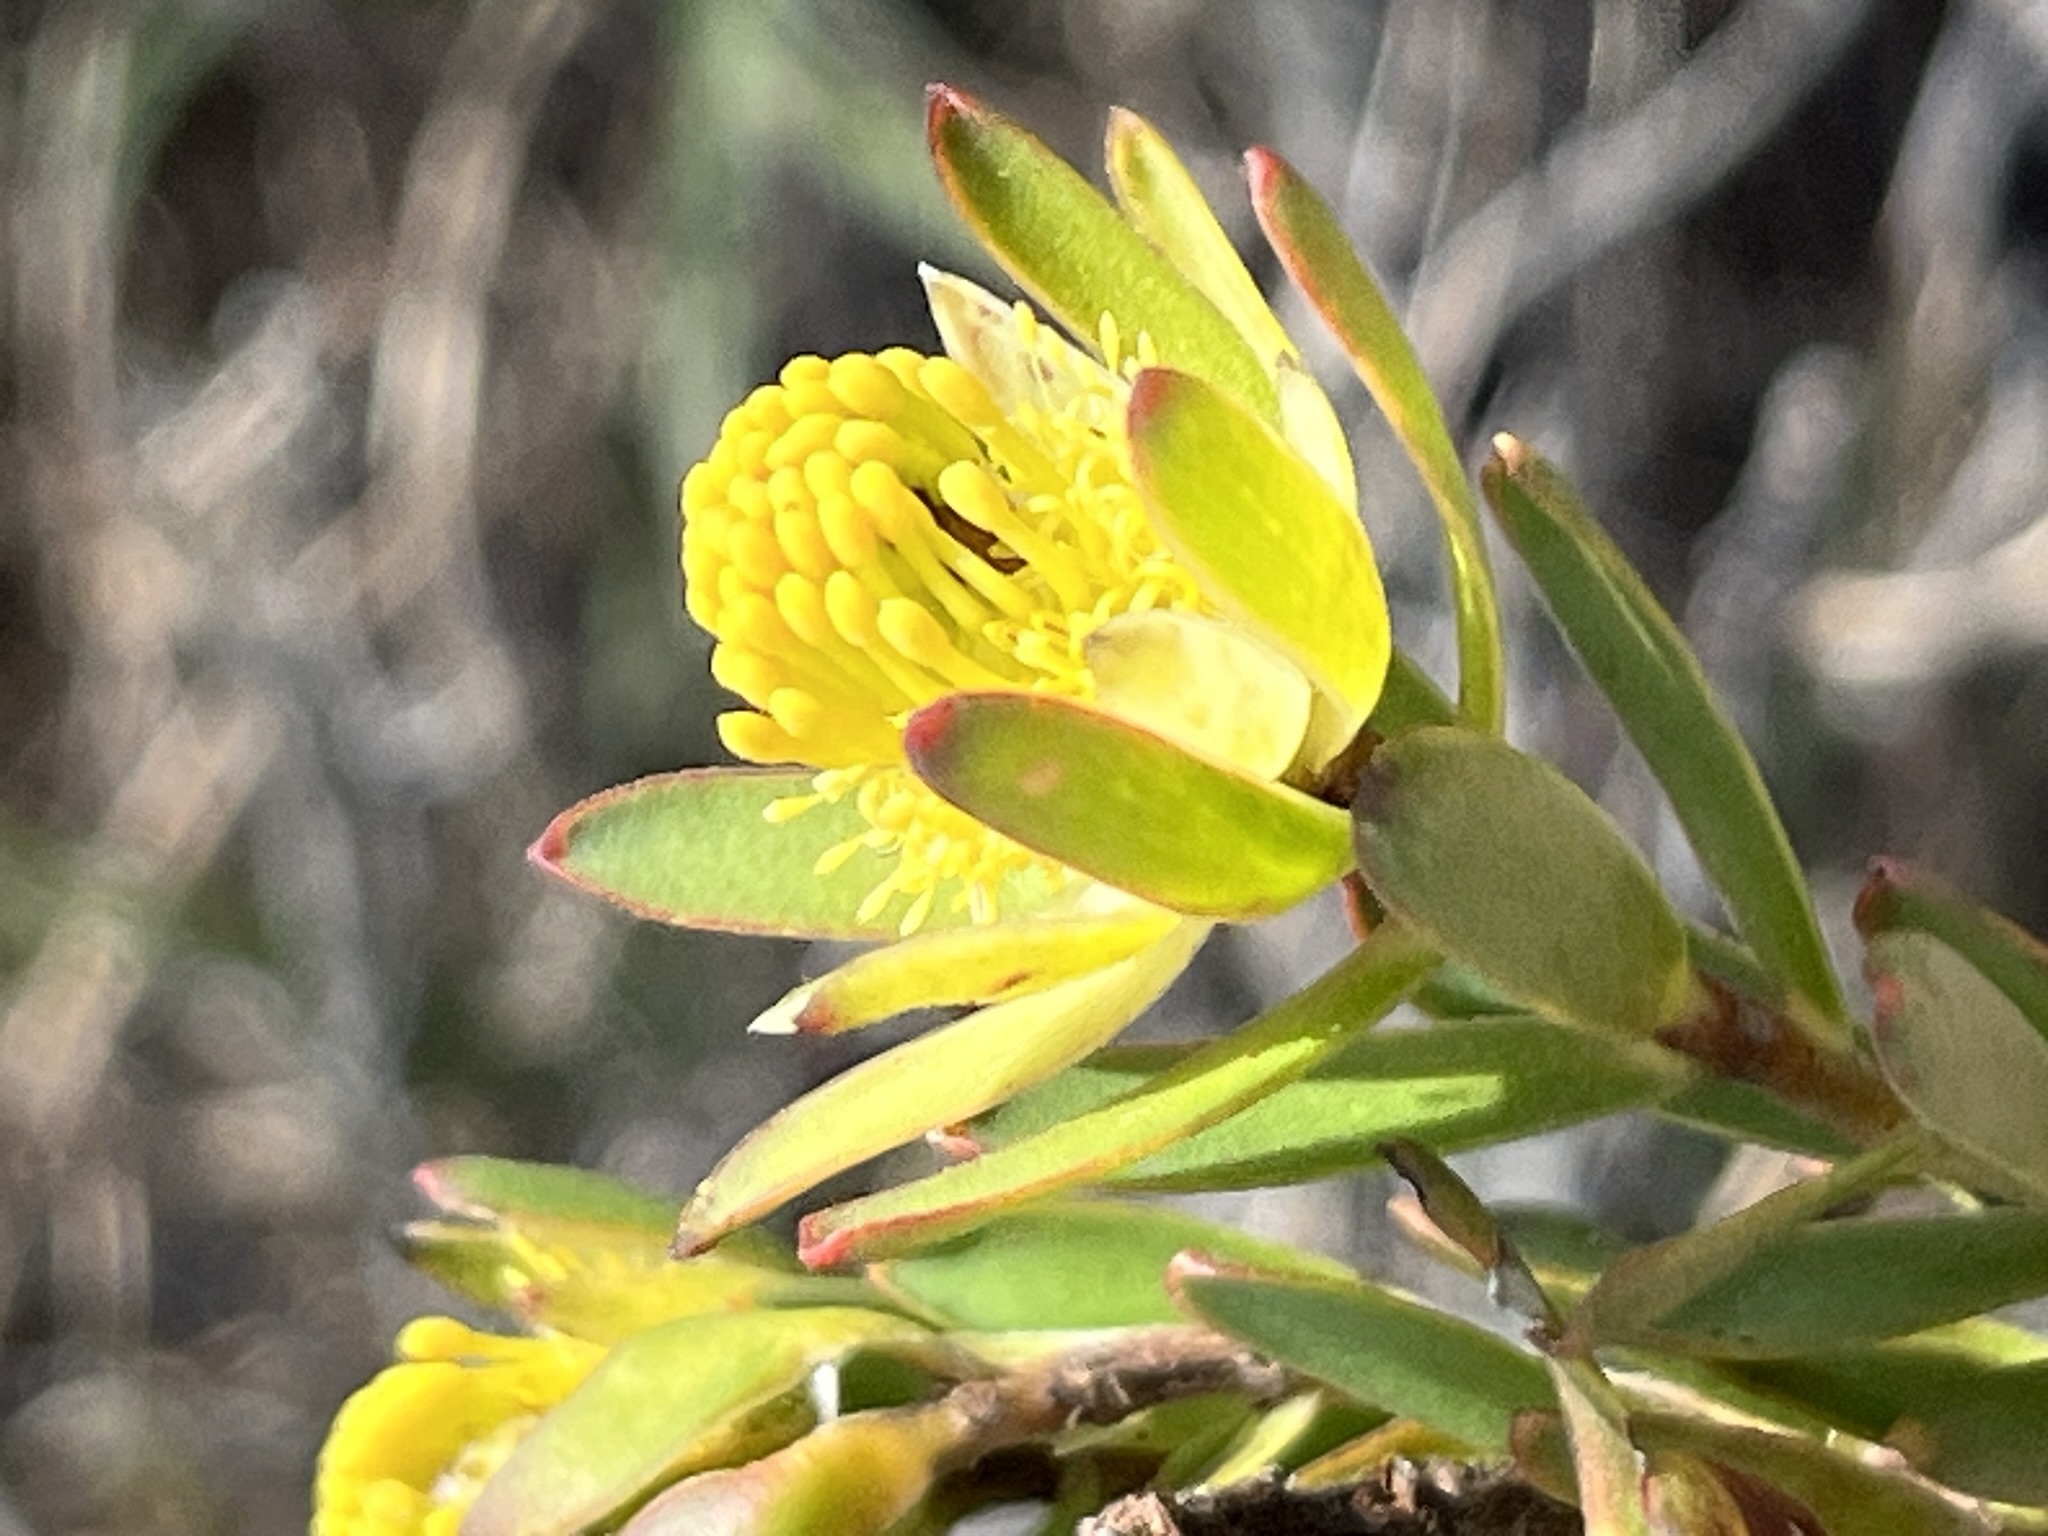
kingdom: Plantae
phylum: Tracheophyta
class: Magnoliopsida
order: Proteales
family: Proteaceae
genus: Leucadendron
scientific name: Leucadendron stelligerum
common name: Agulhas conebush
